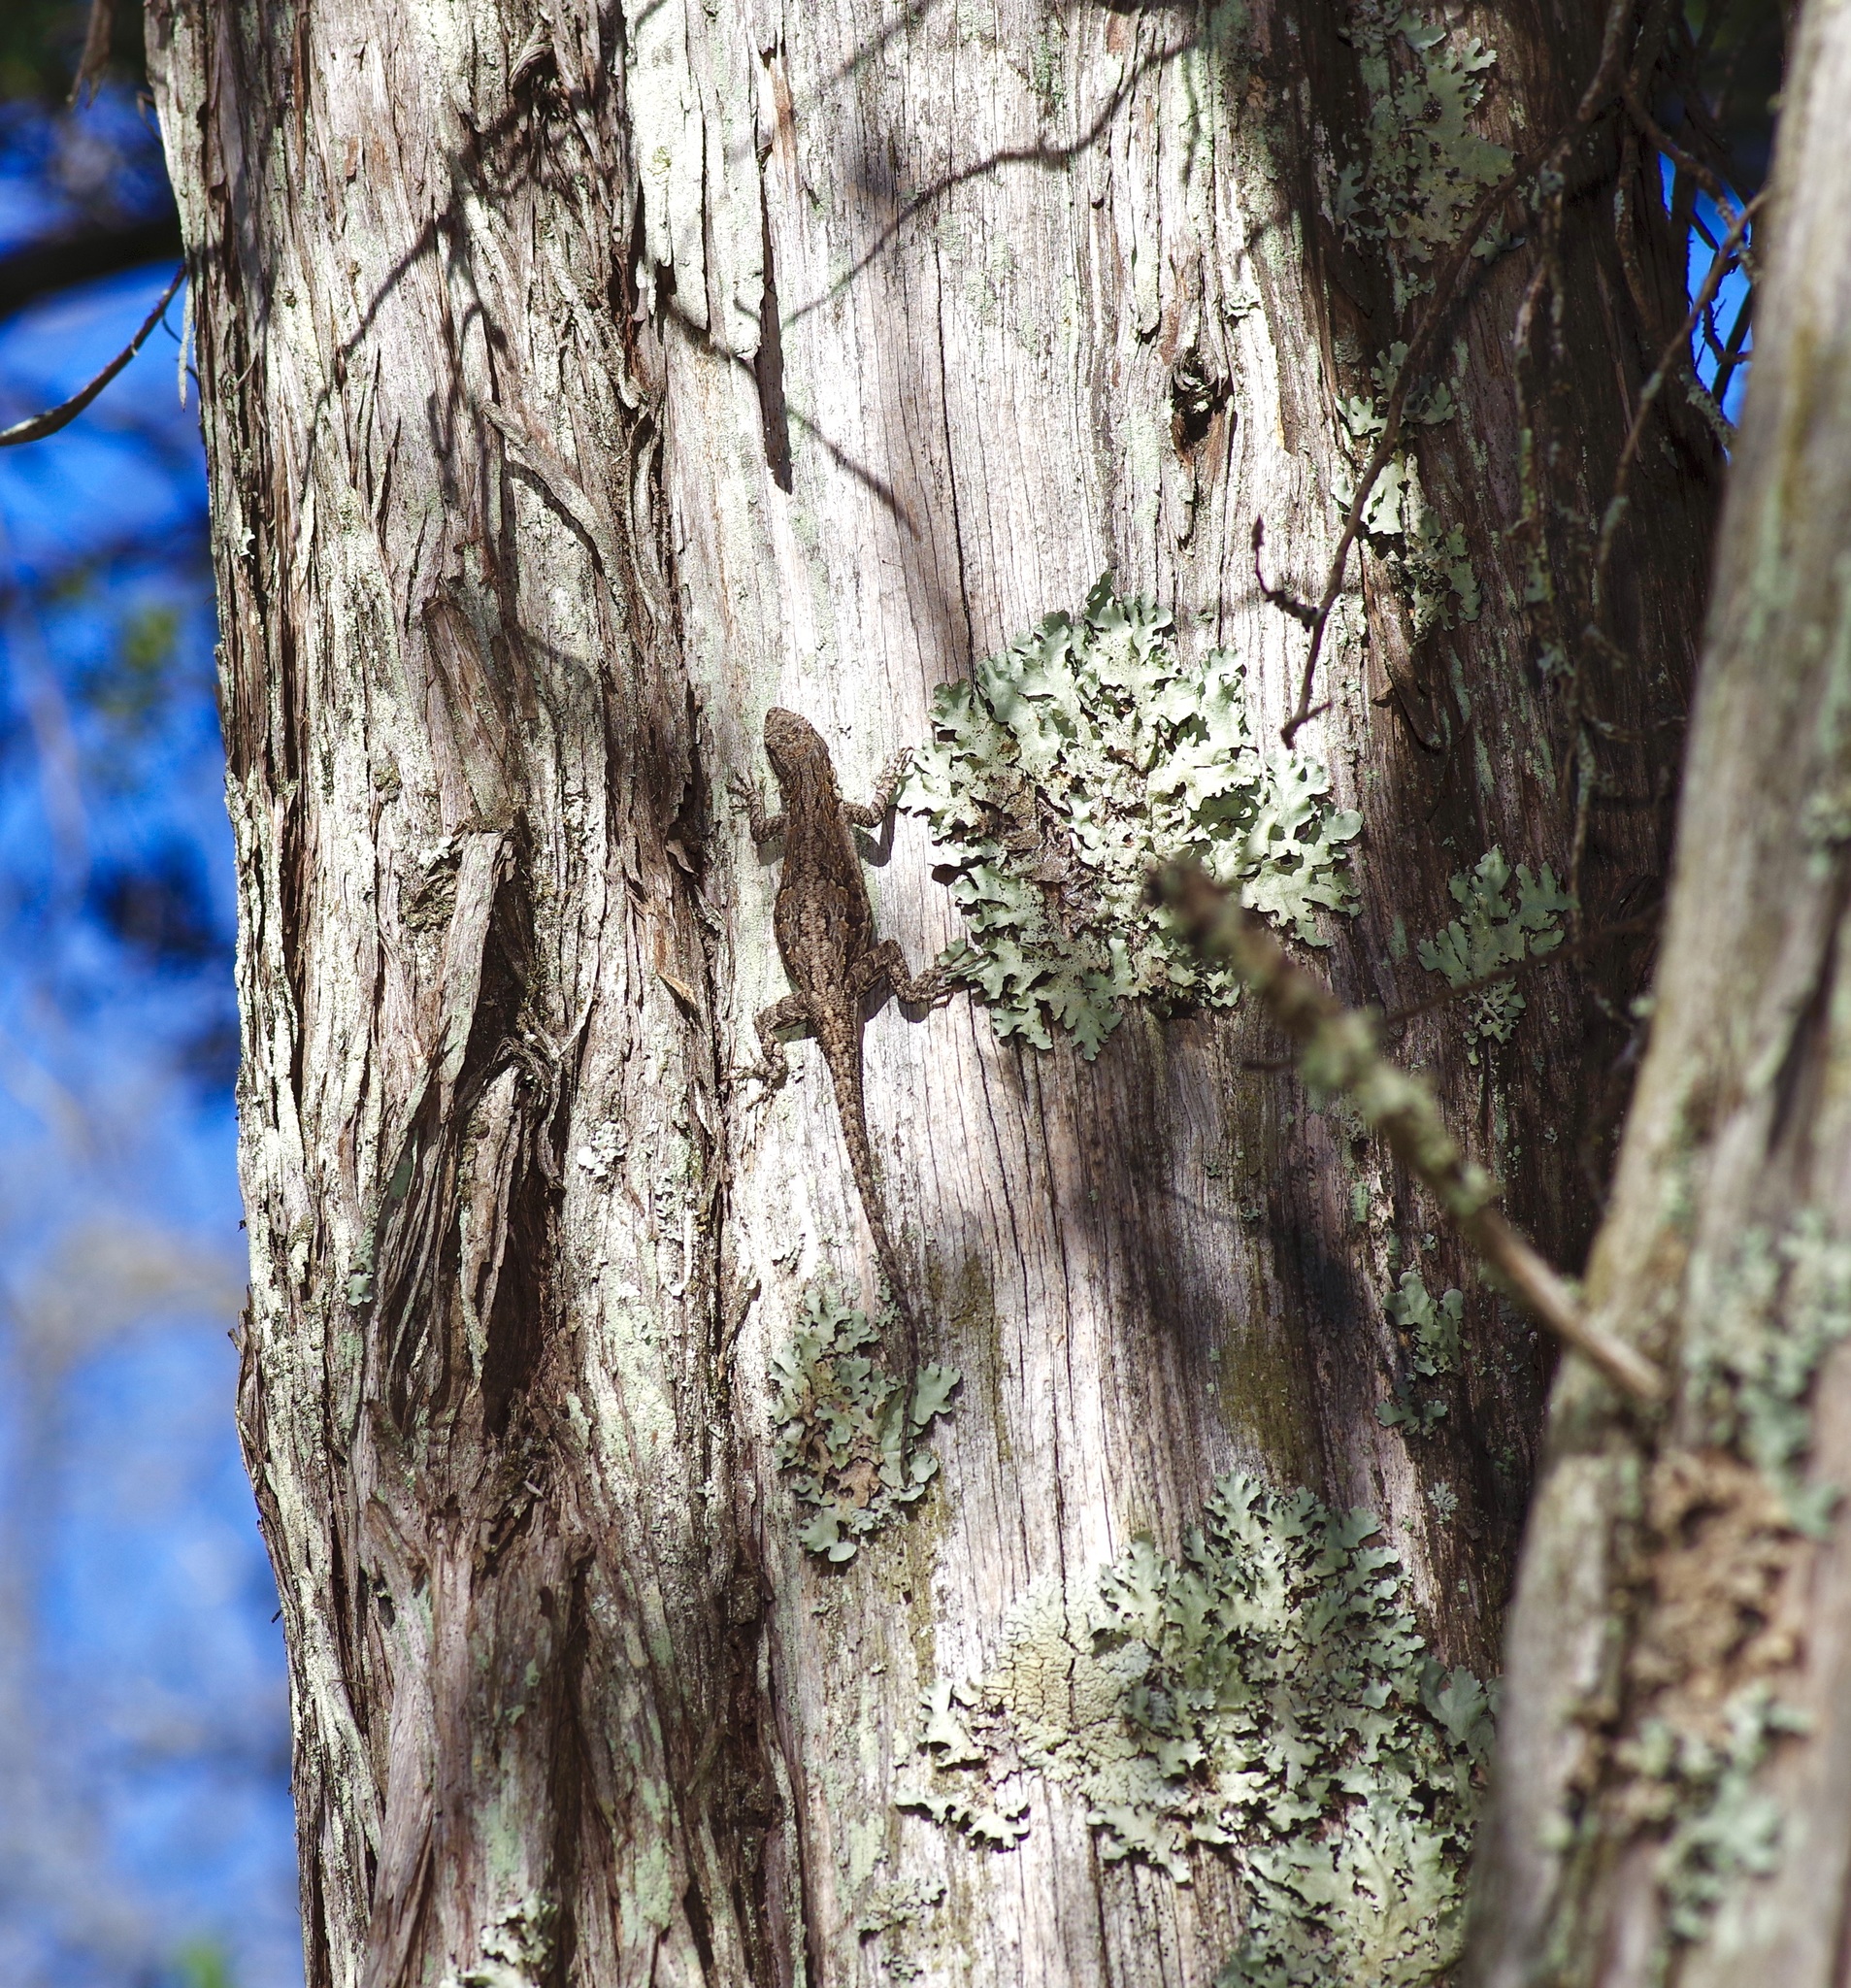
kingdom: Animalia
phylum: Chordata
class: Squamata
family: Phrynosomatidae
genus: Urosaurus
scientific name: Urosaurus ornatus
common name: Ornate tree lizard
